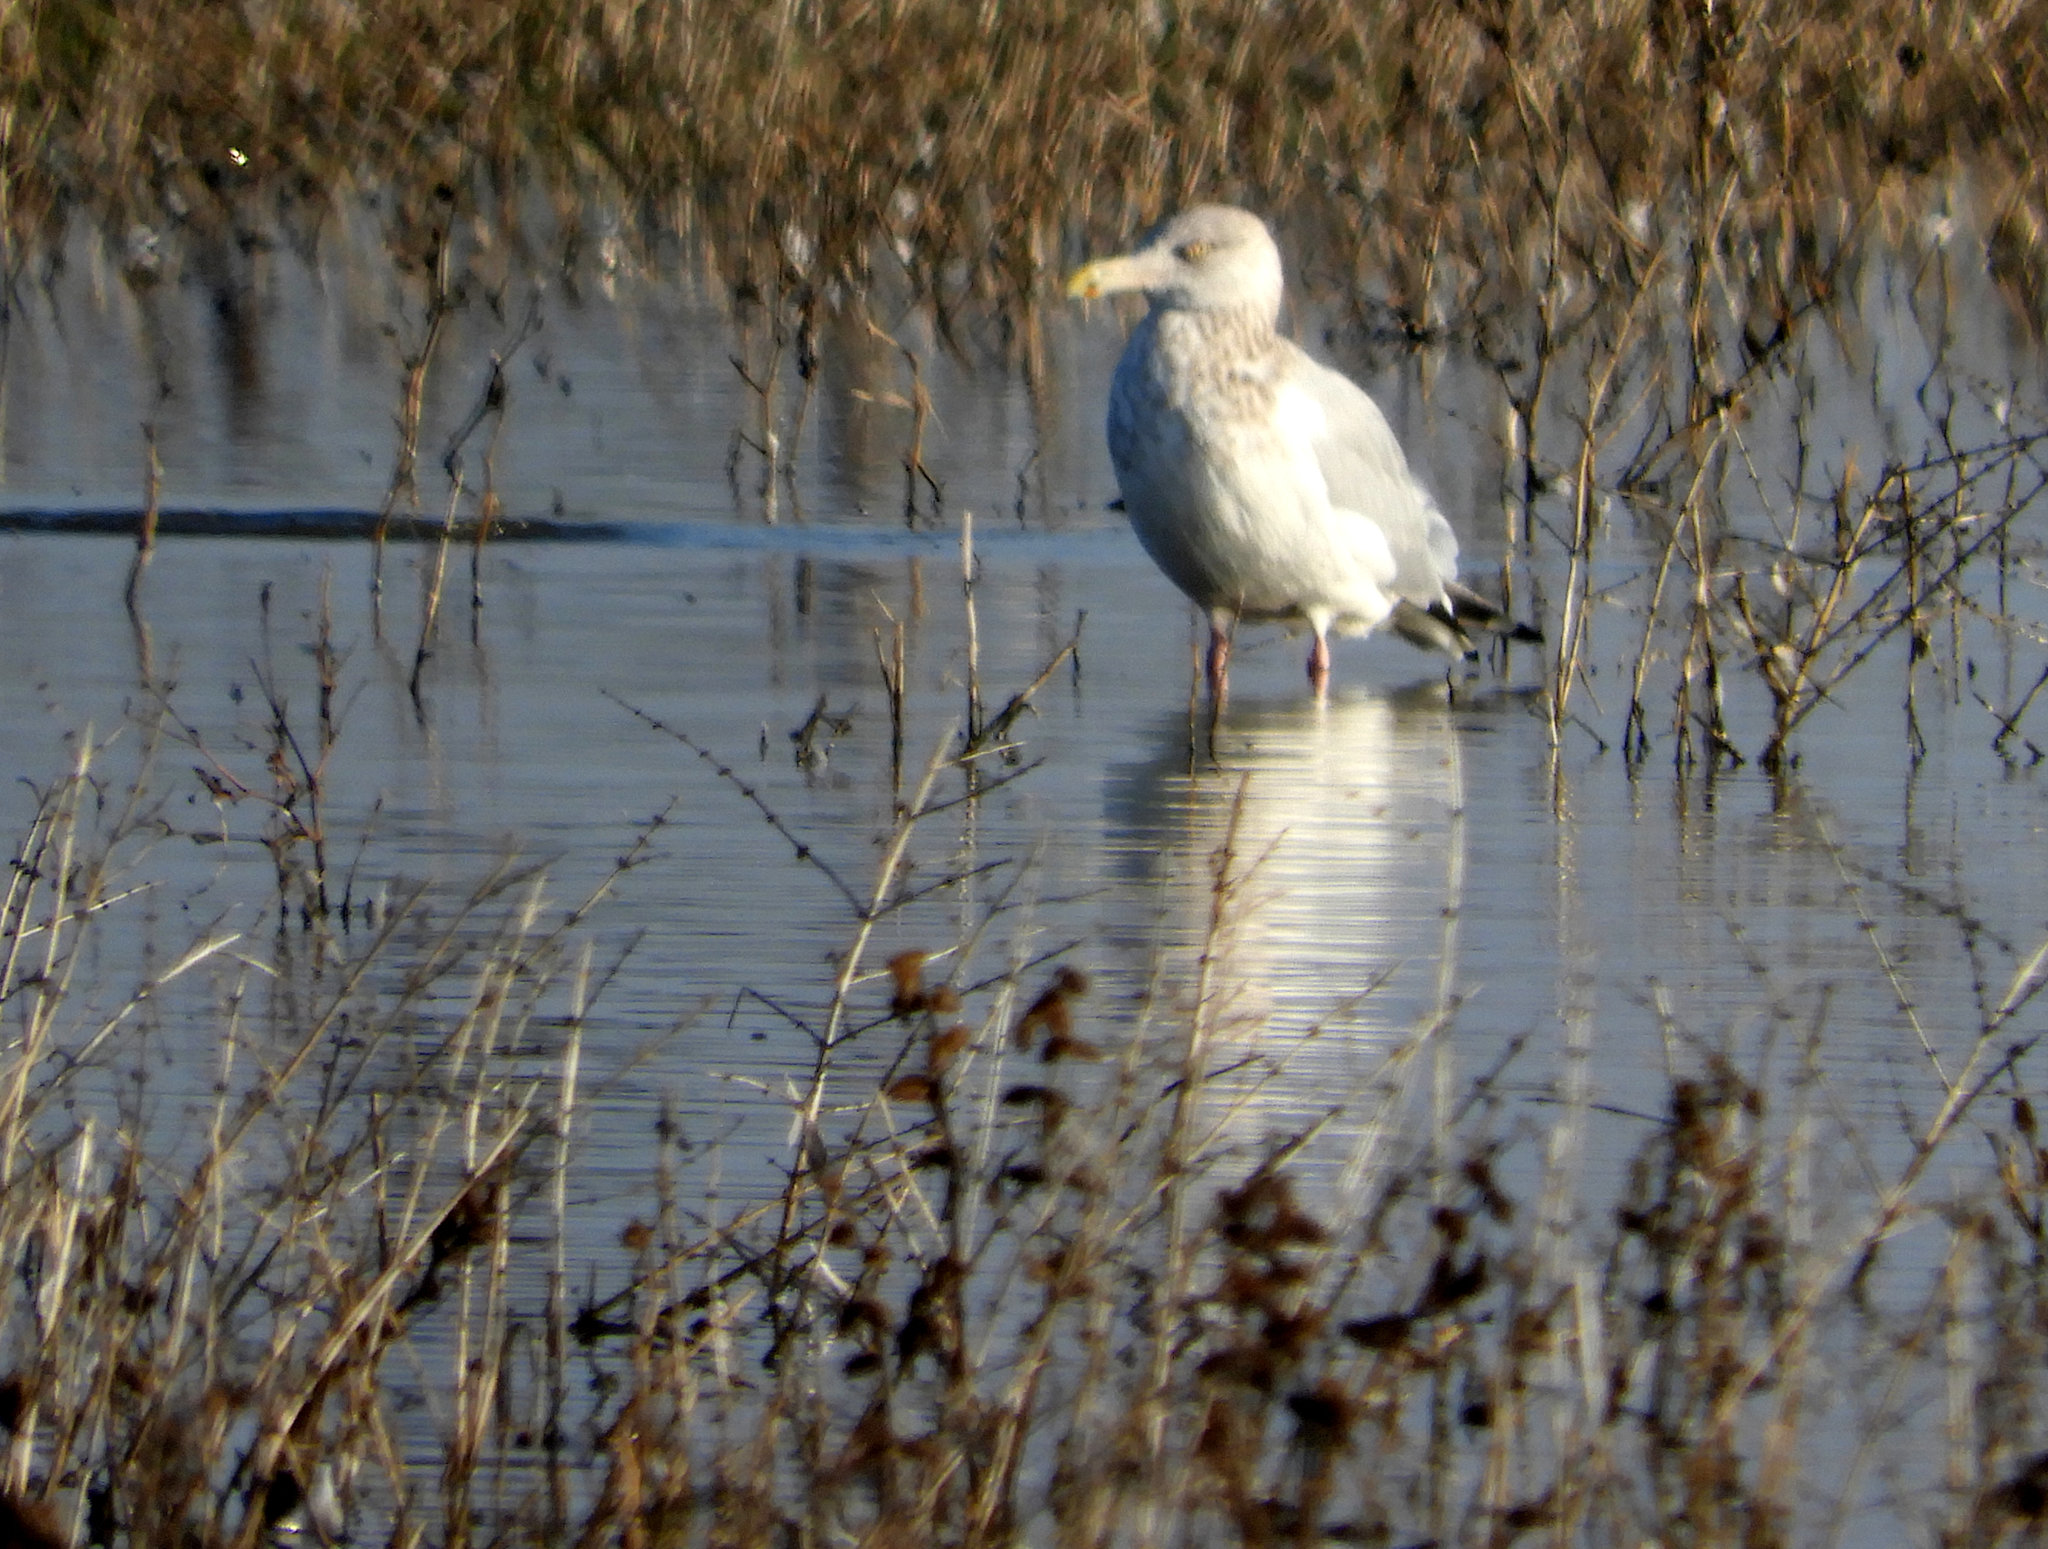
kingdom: Animalia
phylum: Chordata
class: Aves
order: Charadriiformes
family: Laridae
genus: Larus
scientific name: Larus argentatus
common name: Herring gull
